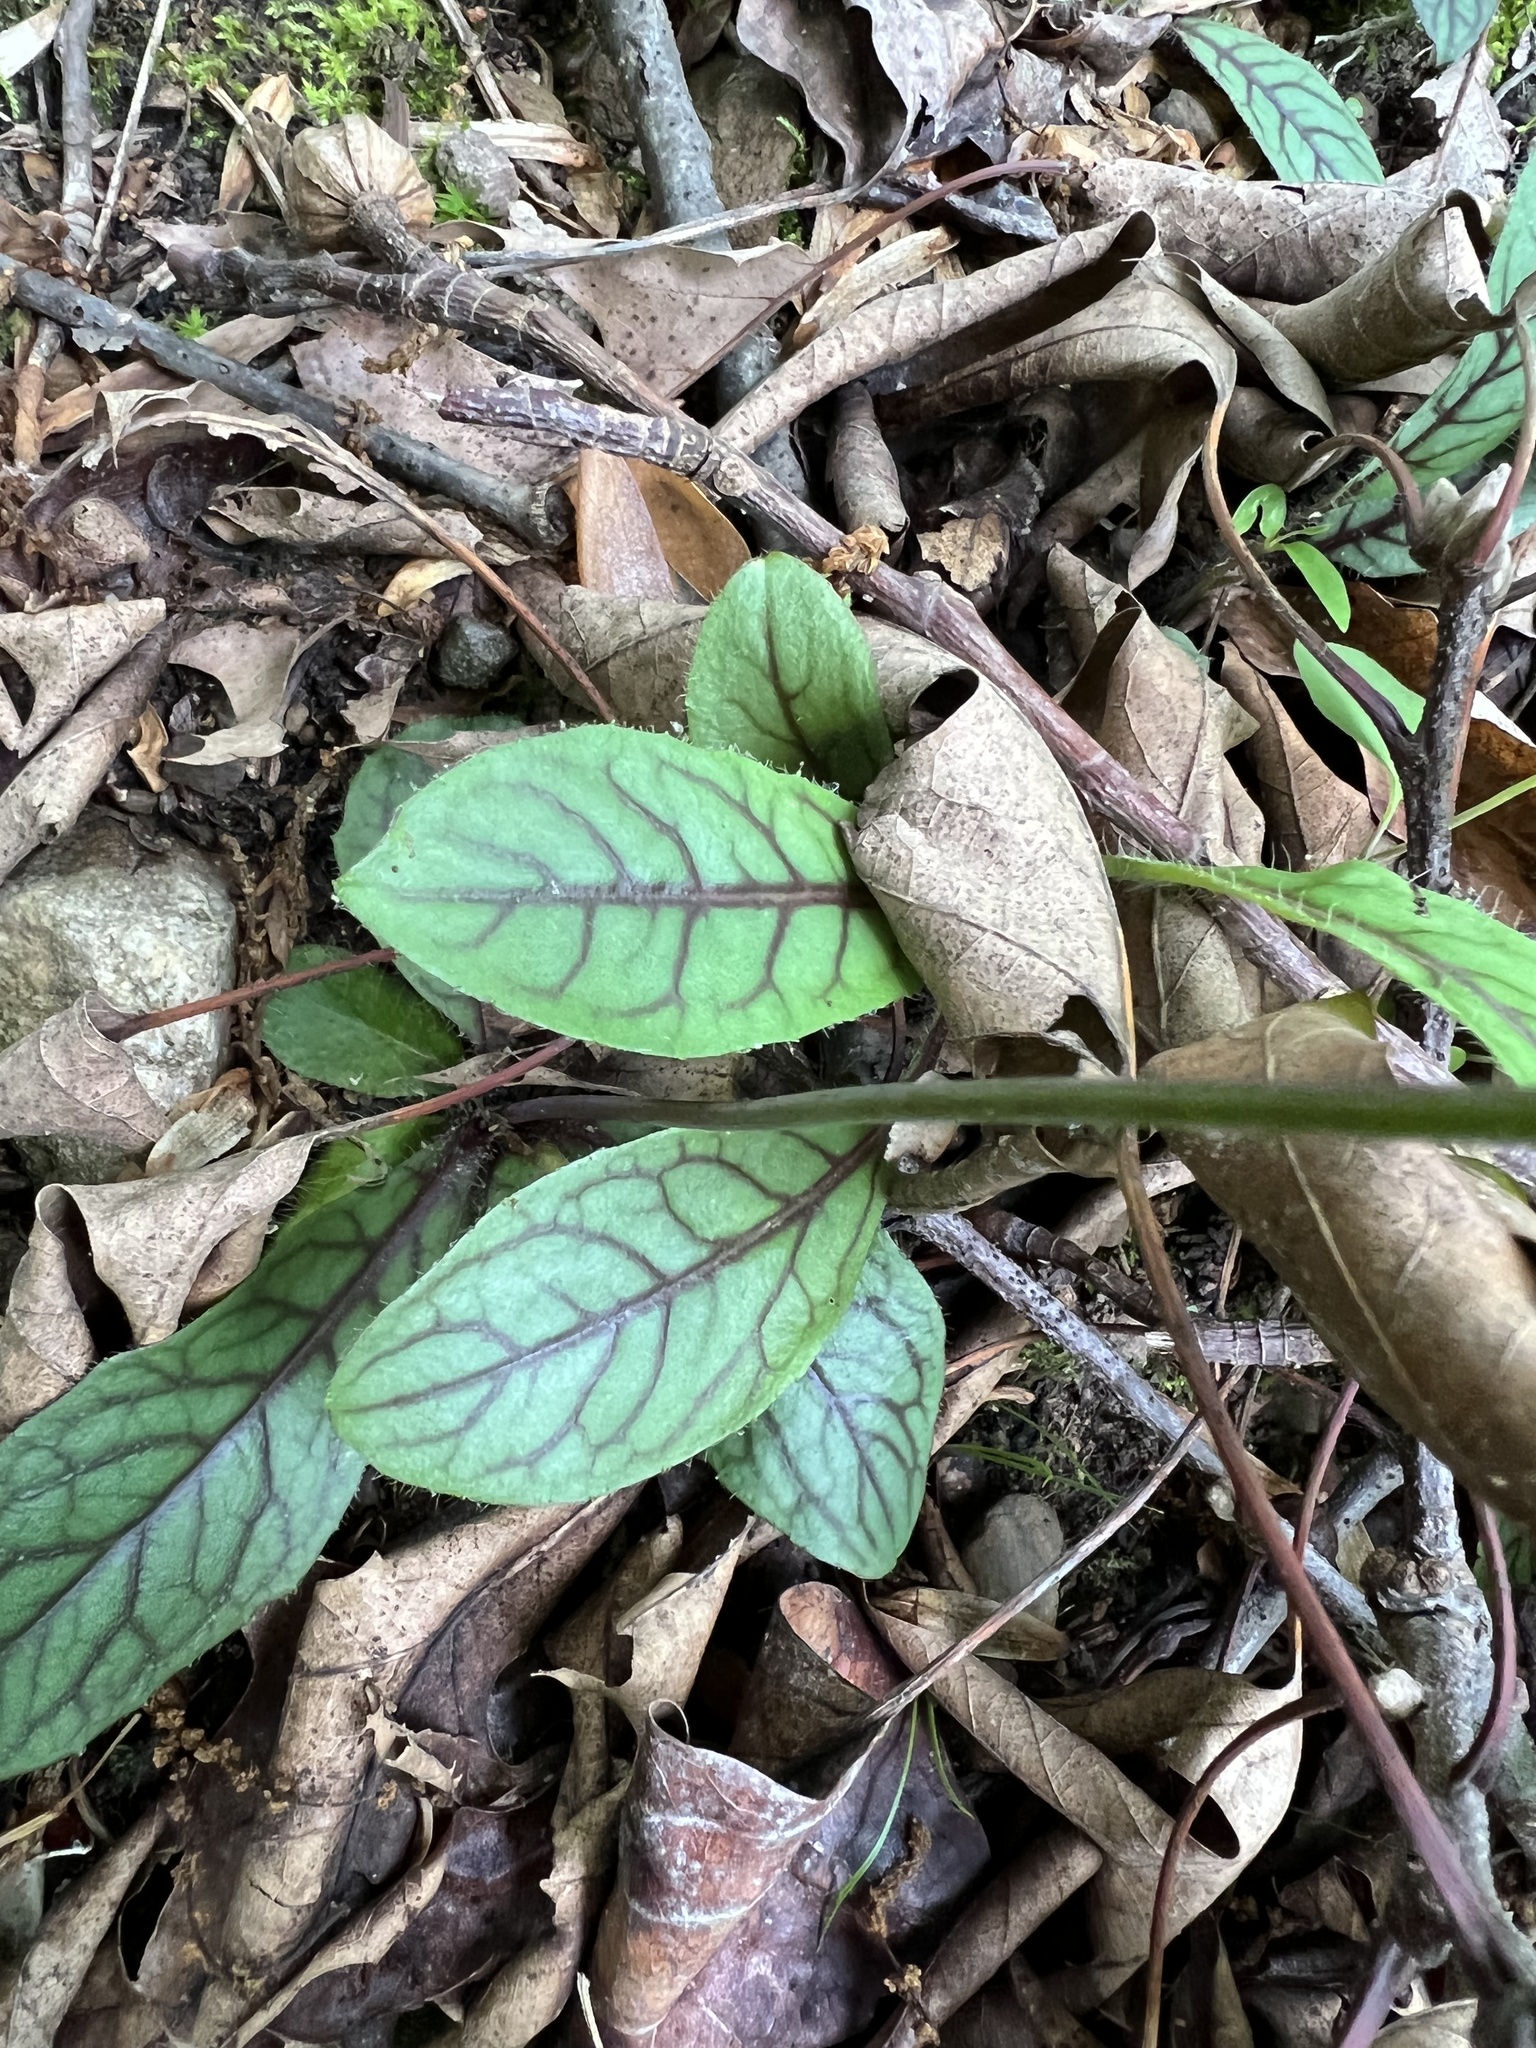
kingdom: Plantae
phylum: Tracheophyta
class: Magnoliopsida
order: Asterales
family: Asteraceae
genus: Hieracium
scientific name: Hieracium venosum
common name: Rattlesnake hawkweed
